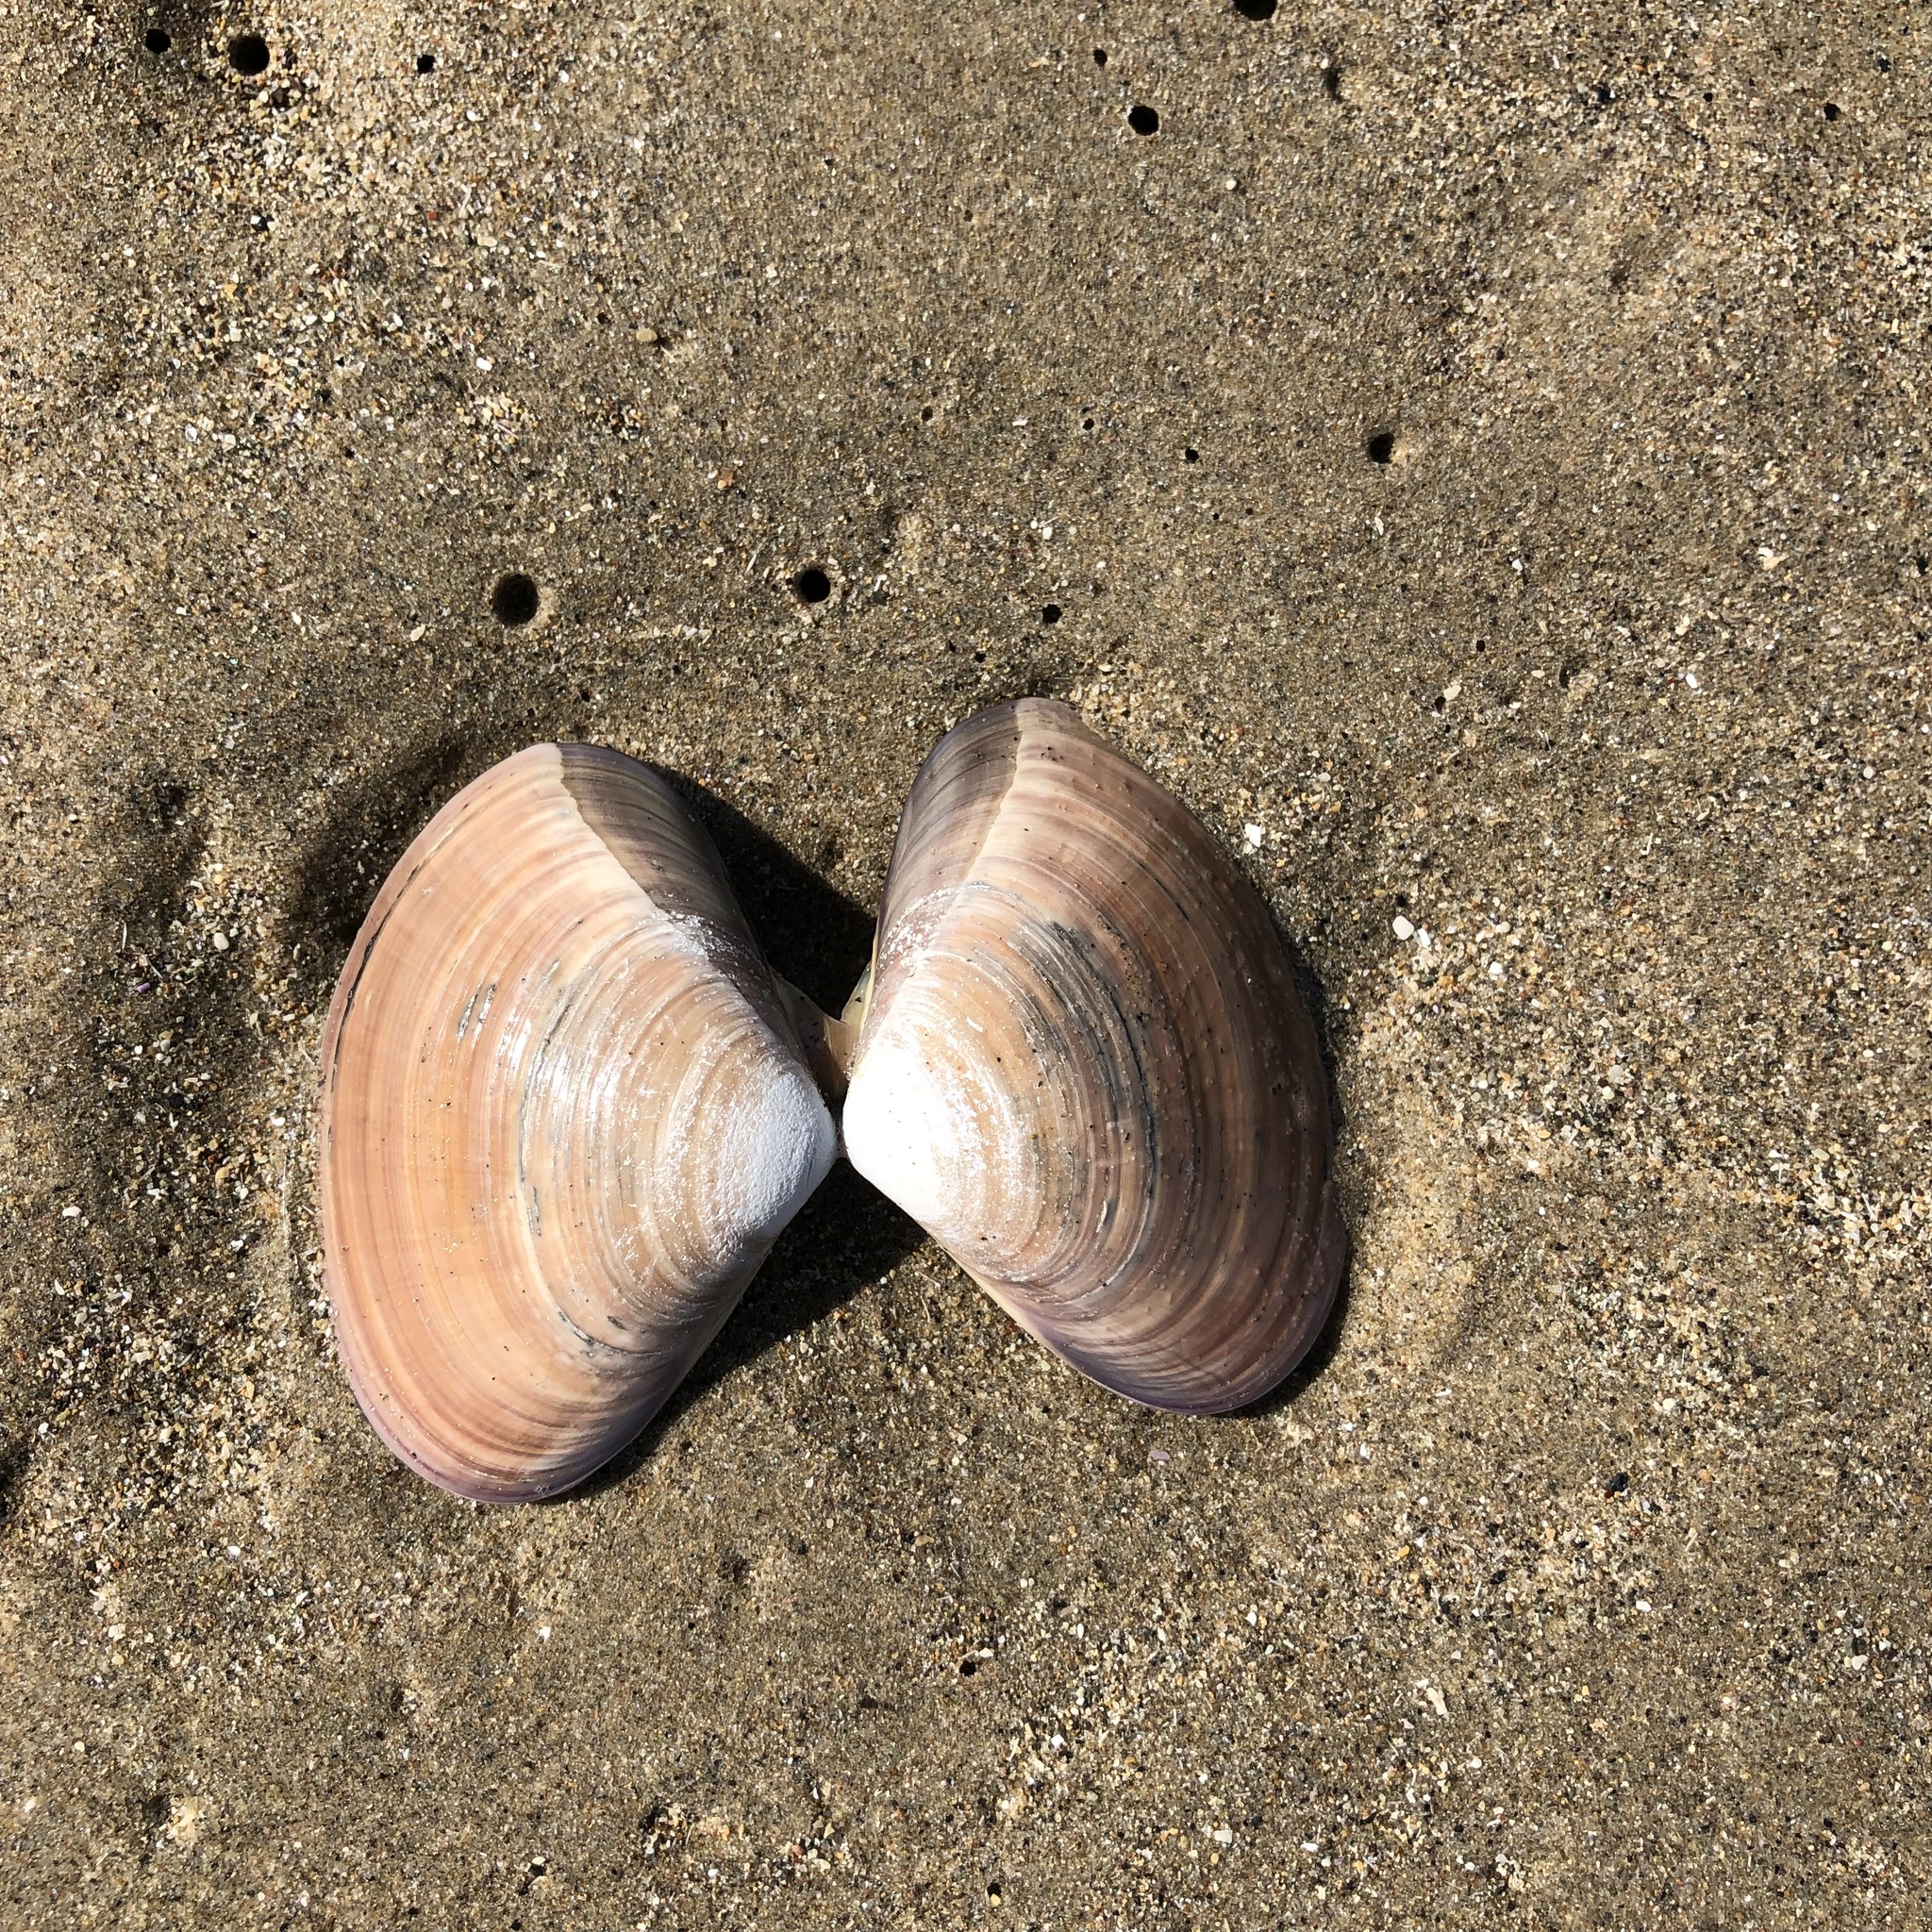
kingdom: Animalia
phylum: Mollusca
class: Bivalvia
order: Venerida
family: Veneridae
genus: Tivela
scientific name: Tivela stultorum
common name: Pismo clam
